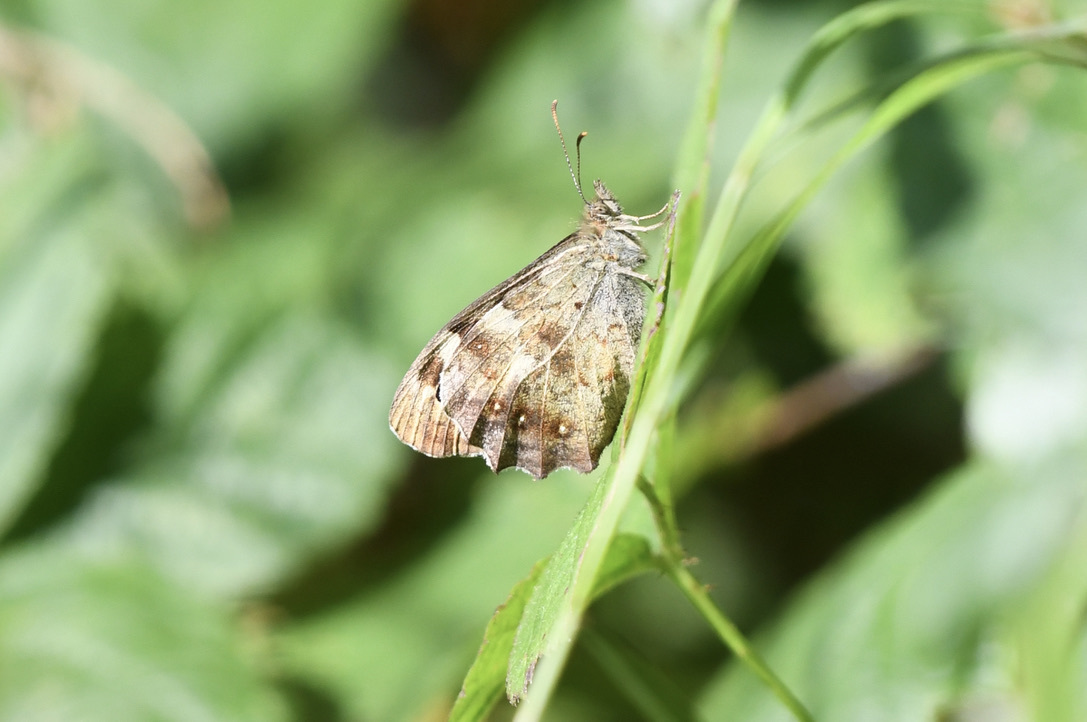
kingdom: Animalia
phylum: Arthropoda
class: Insecta
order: Lepidoptera
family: Nymphalidae
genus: Pararge
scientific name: Pararge aegeria
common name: Speckled wood
